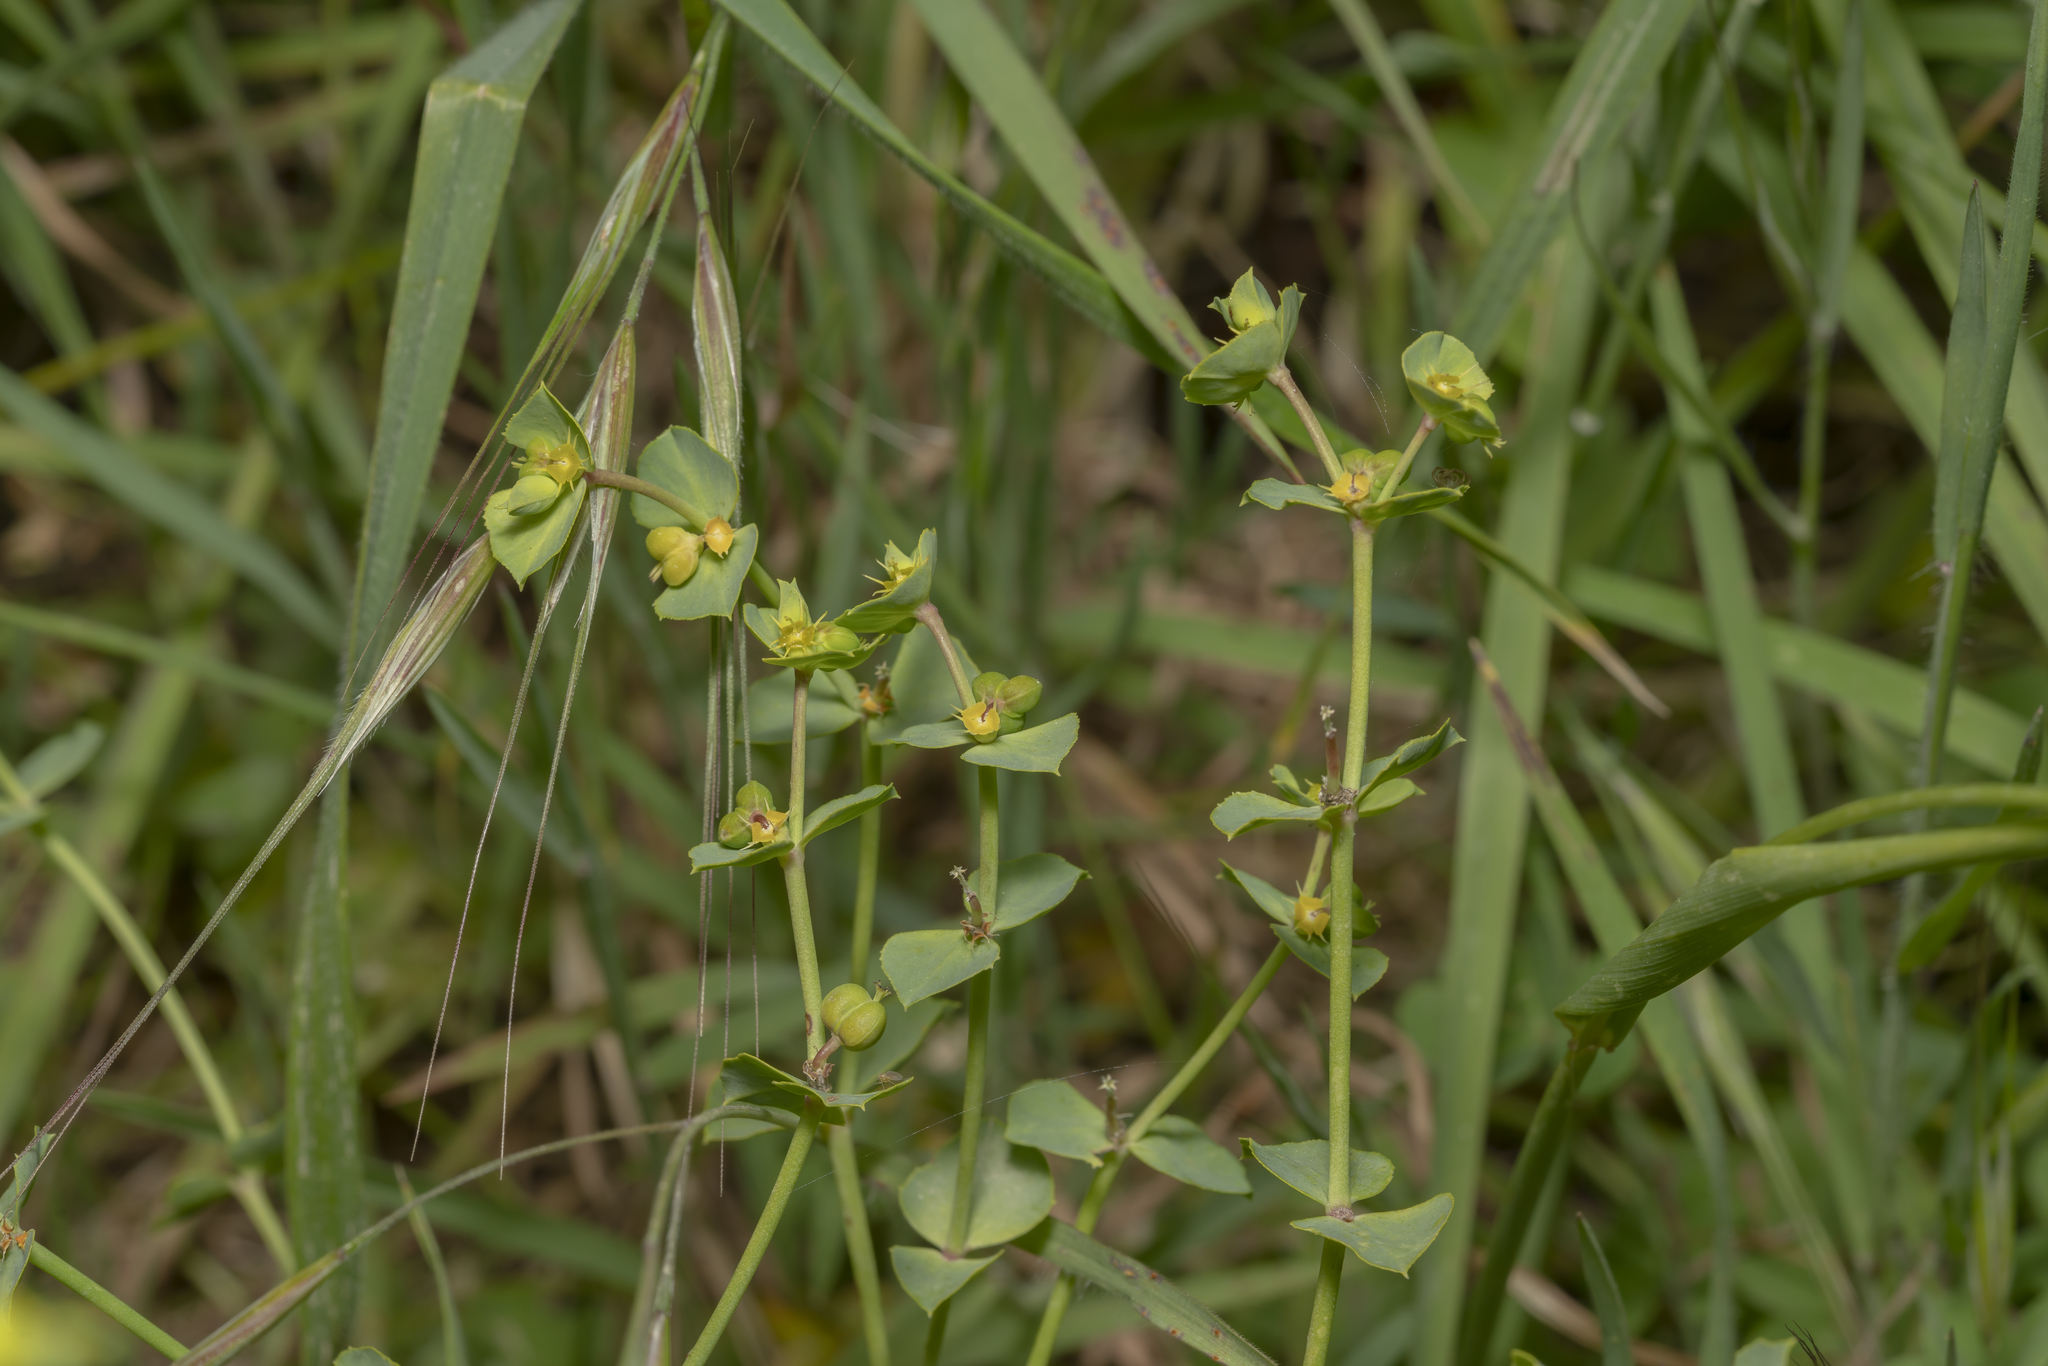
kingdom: Plantae
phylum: Tracheophyta
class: Magnoliopsida
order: Malpighiales
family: Euphorbiaceae
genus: Euphorbia
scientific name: Euphorbia terracina
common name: Geraldton carnation weed
